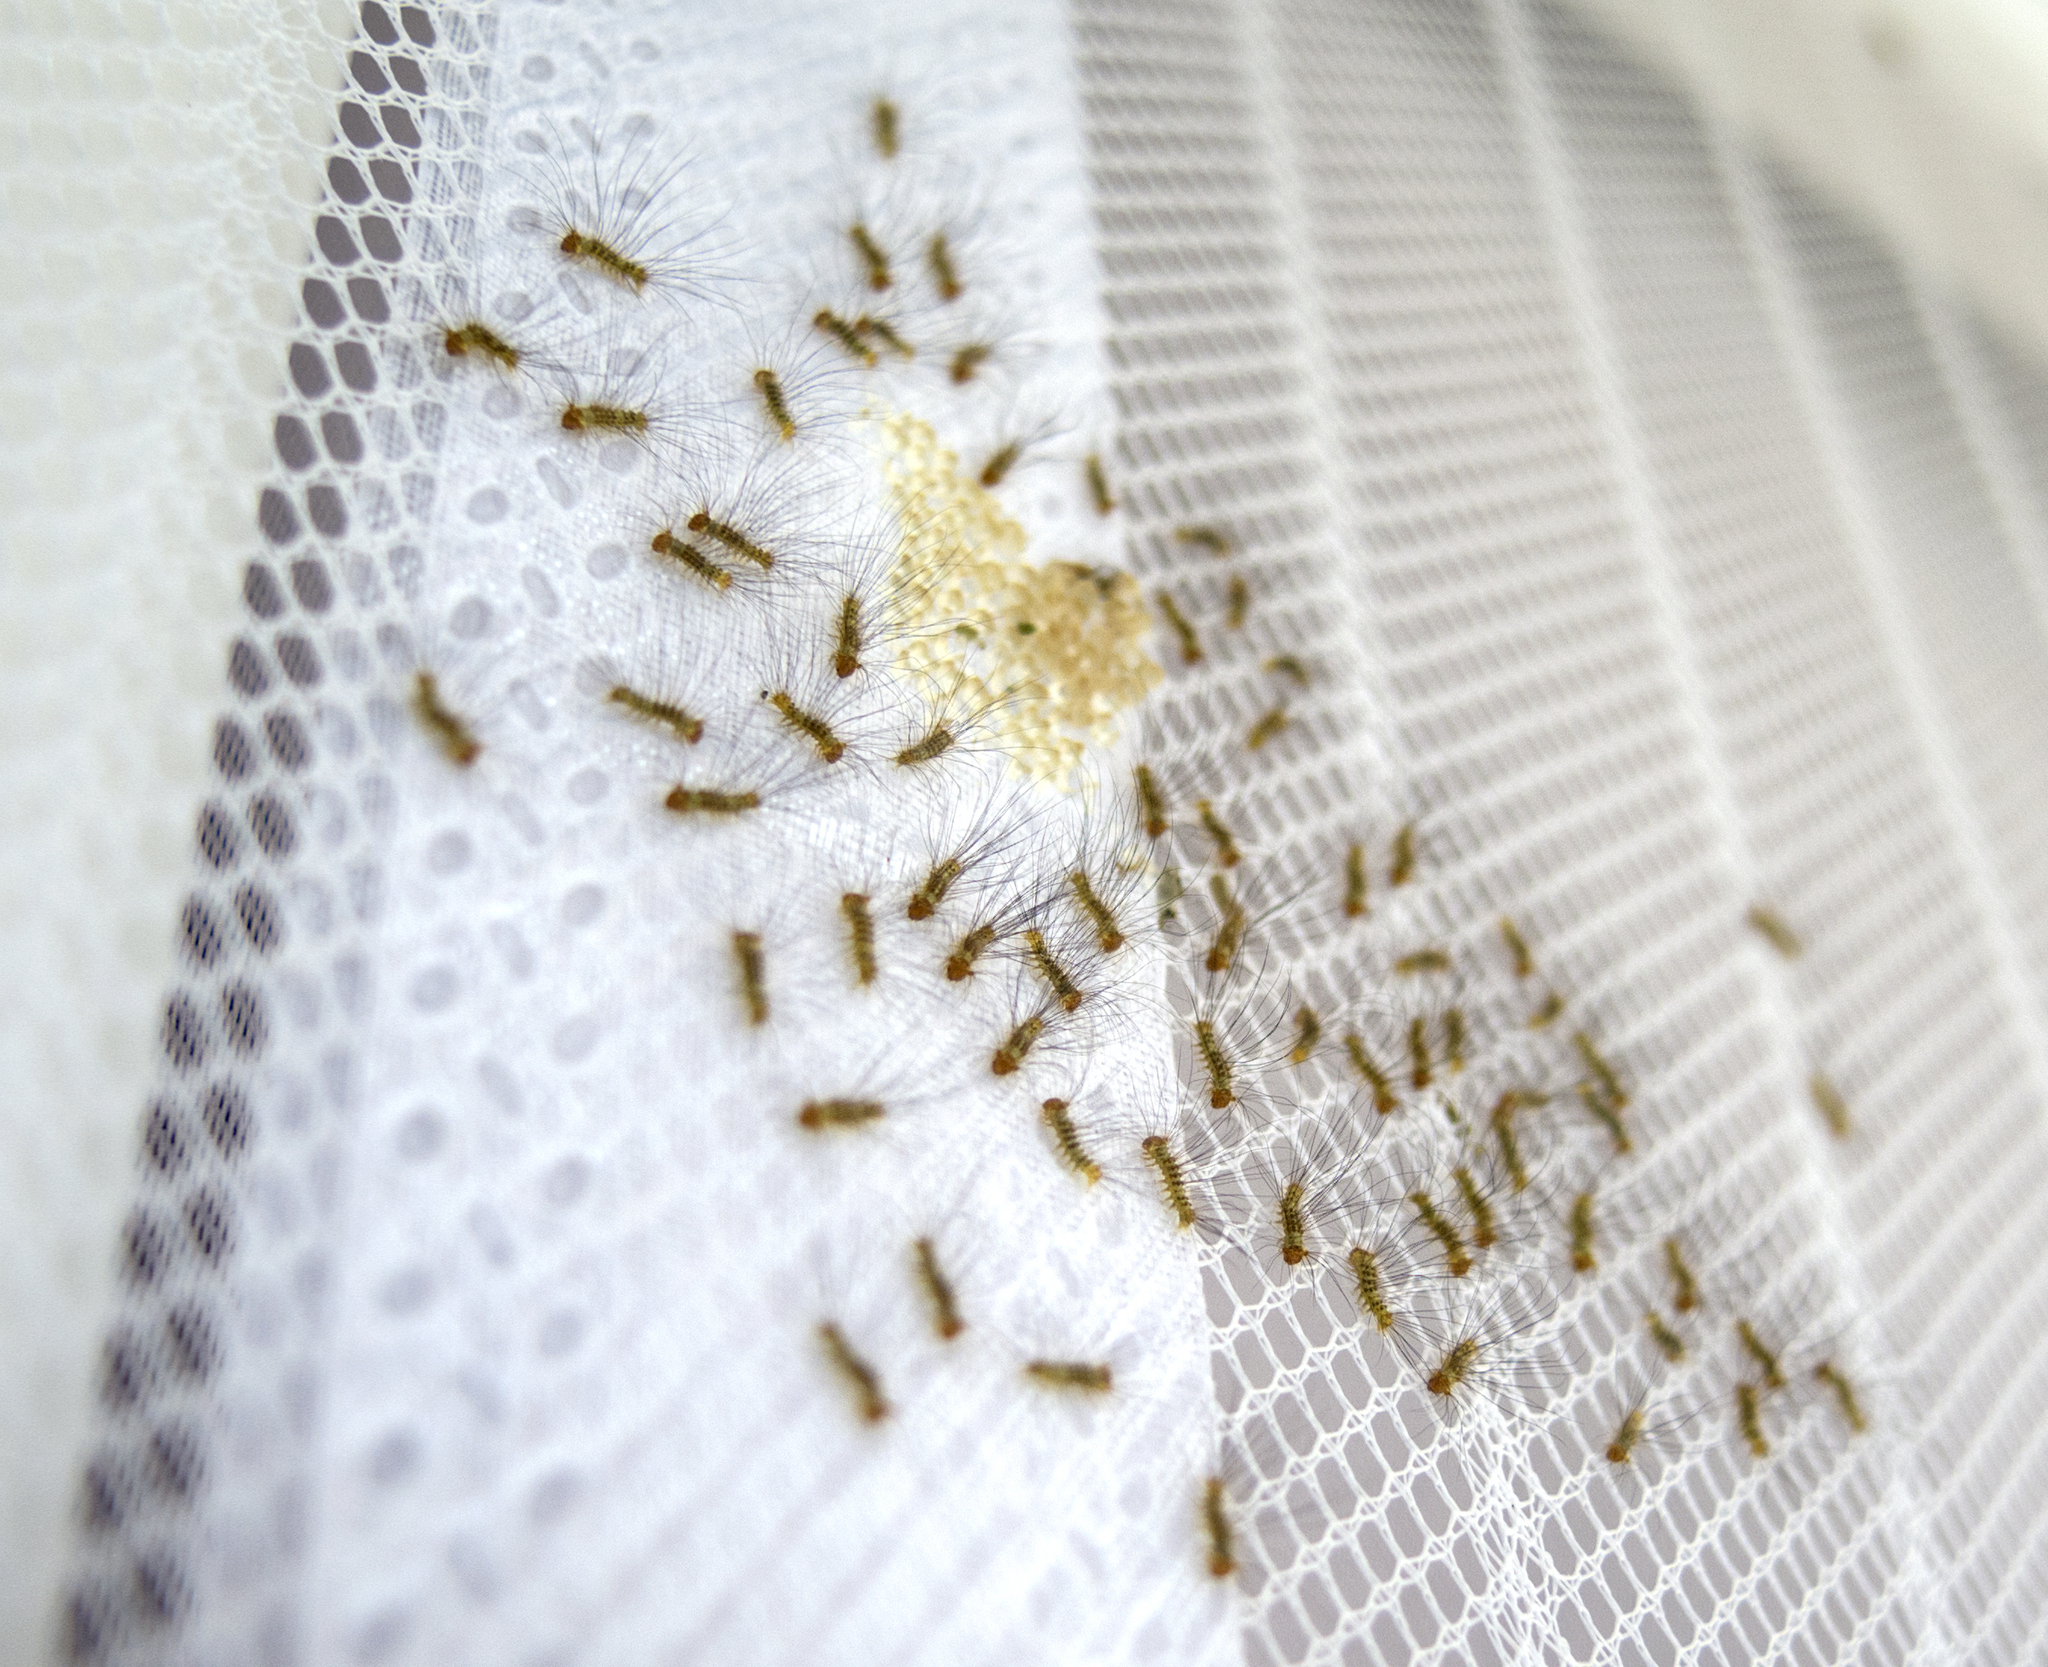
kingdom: Animalia
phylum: Arthropoda
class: Insecta
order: Lepidoptera
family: Erebidae
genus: Calliteara
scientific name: Calliteara pudibunda
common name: Pale tussock
